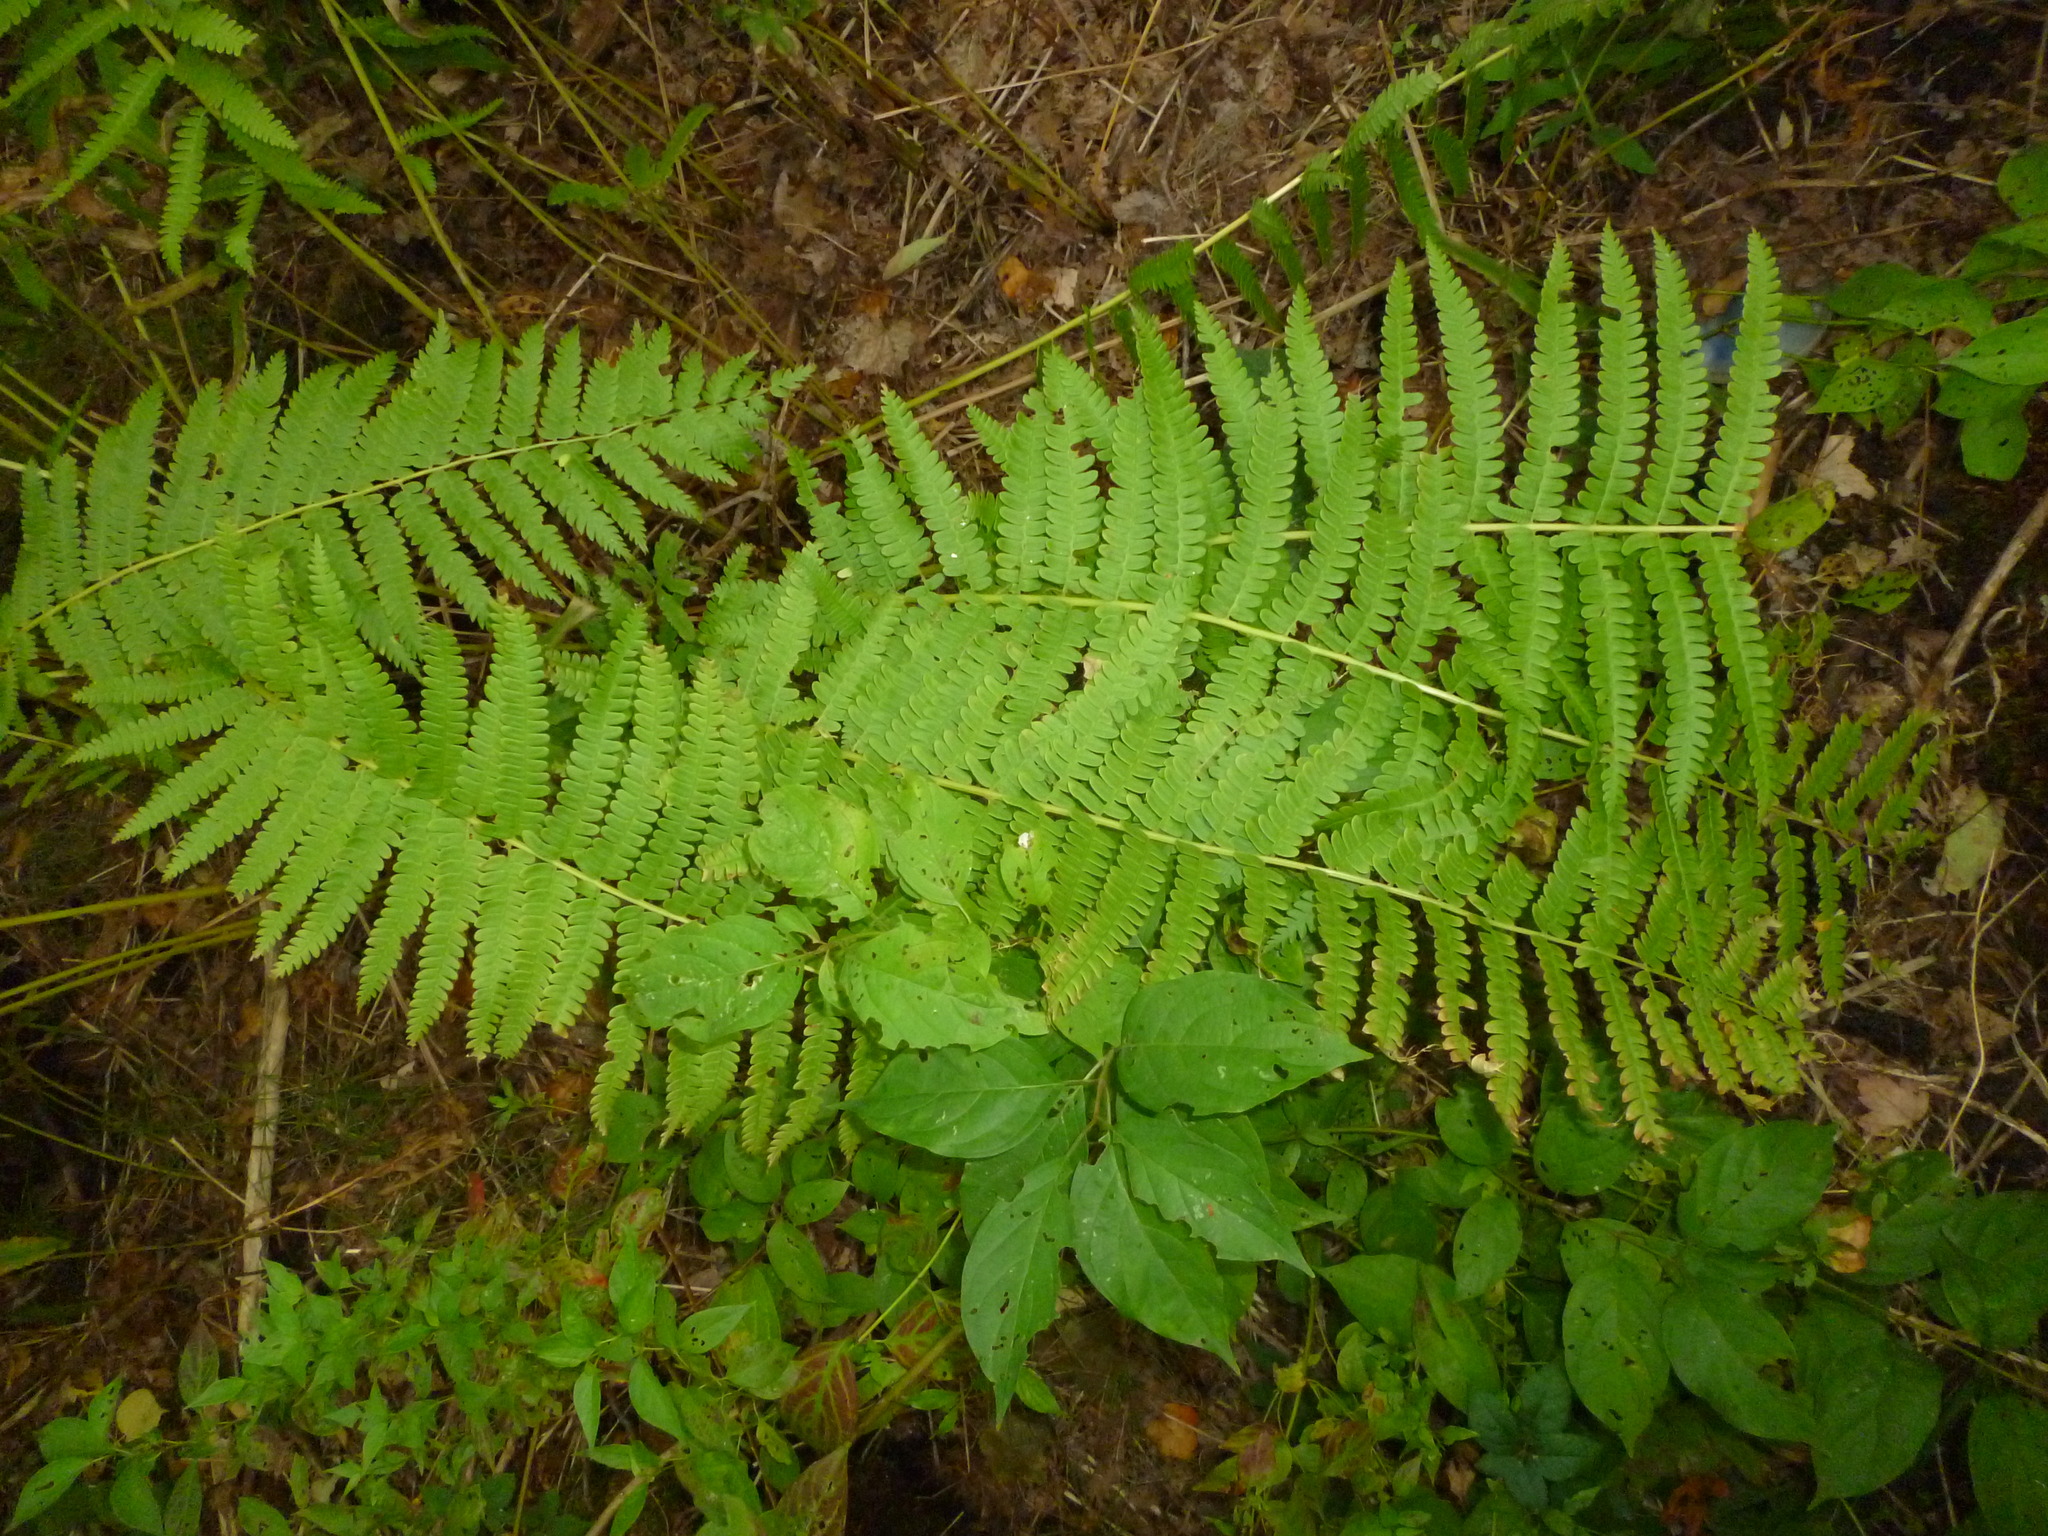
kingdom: Plantae
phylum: Tracheophyta
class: Polypodiopsida
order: Osmundales
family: Osmundaceae
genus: Osmundastrum
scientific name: Osmundastrum cinnamomeum
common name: Cinnamon fern
